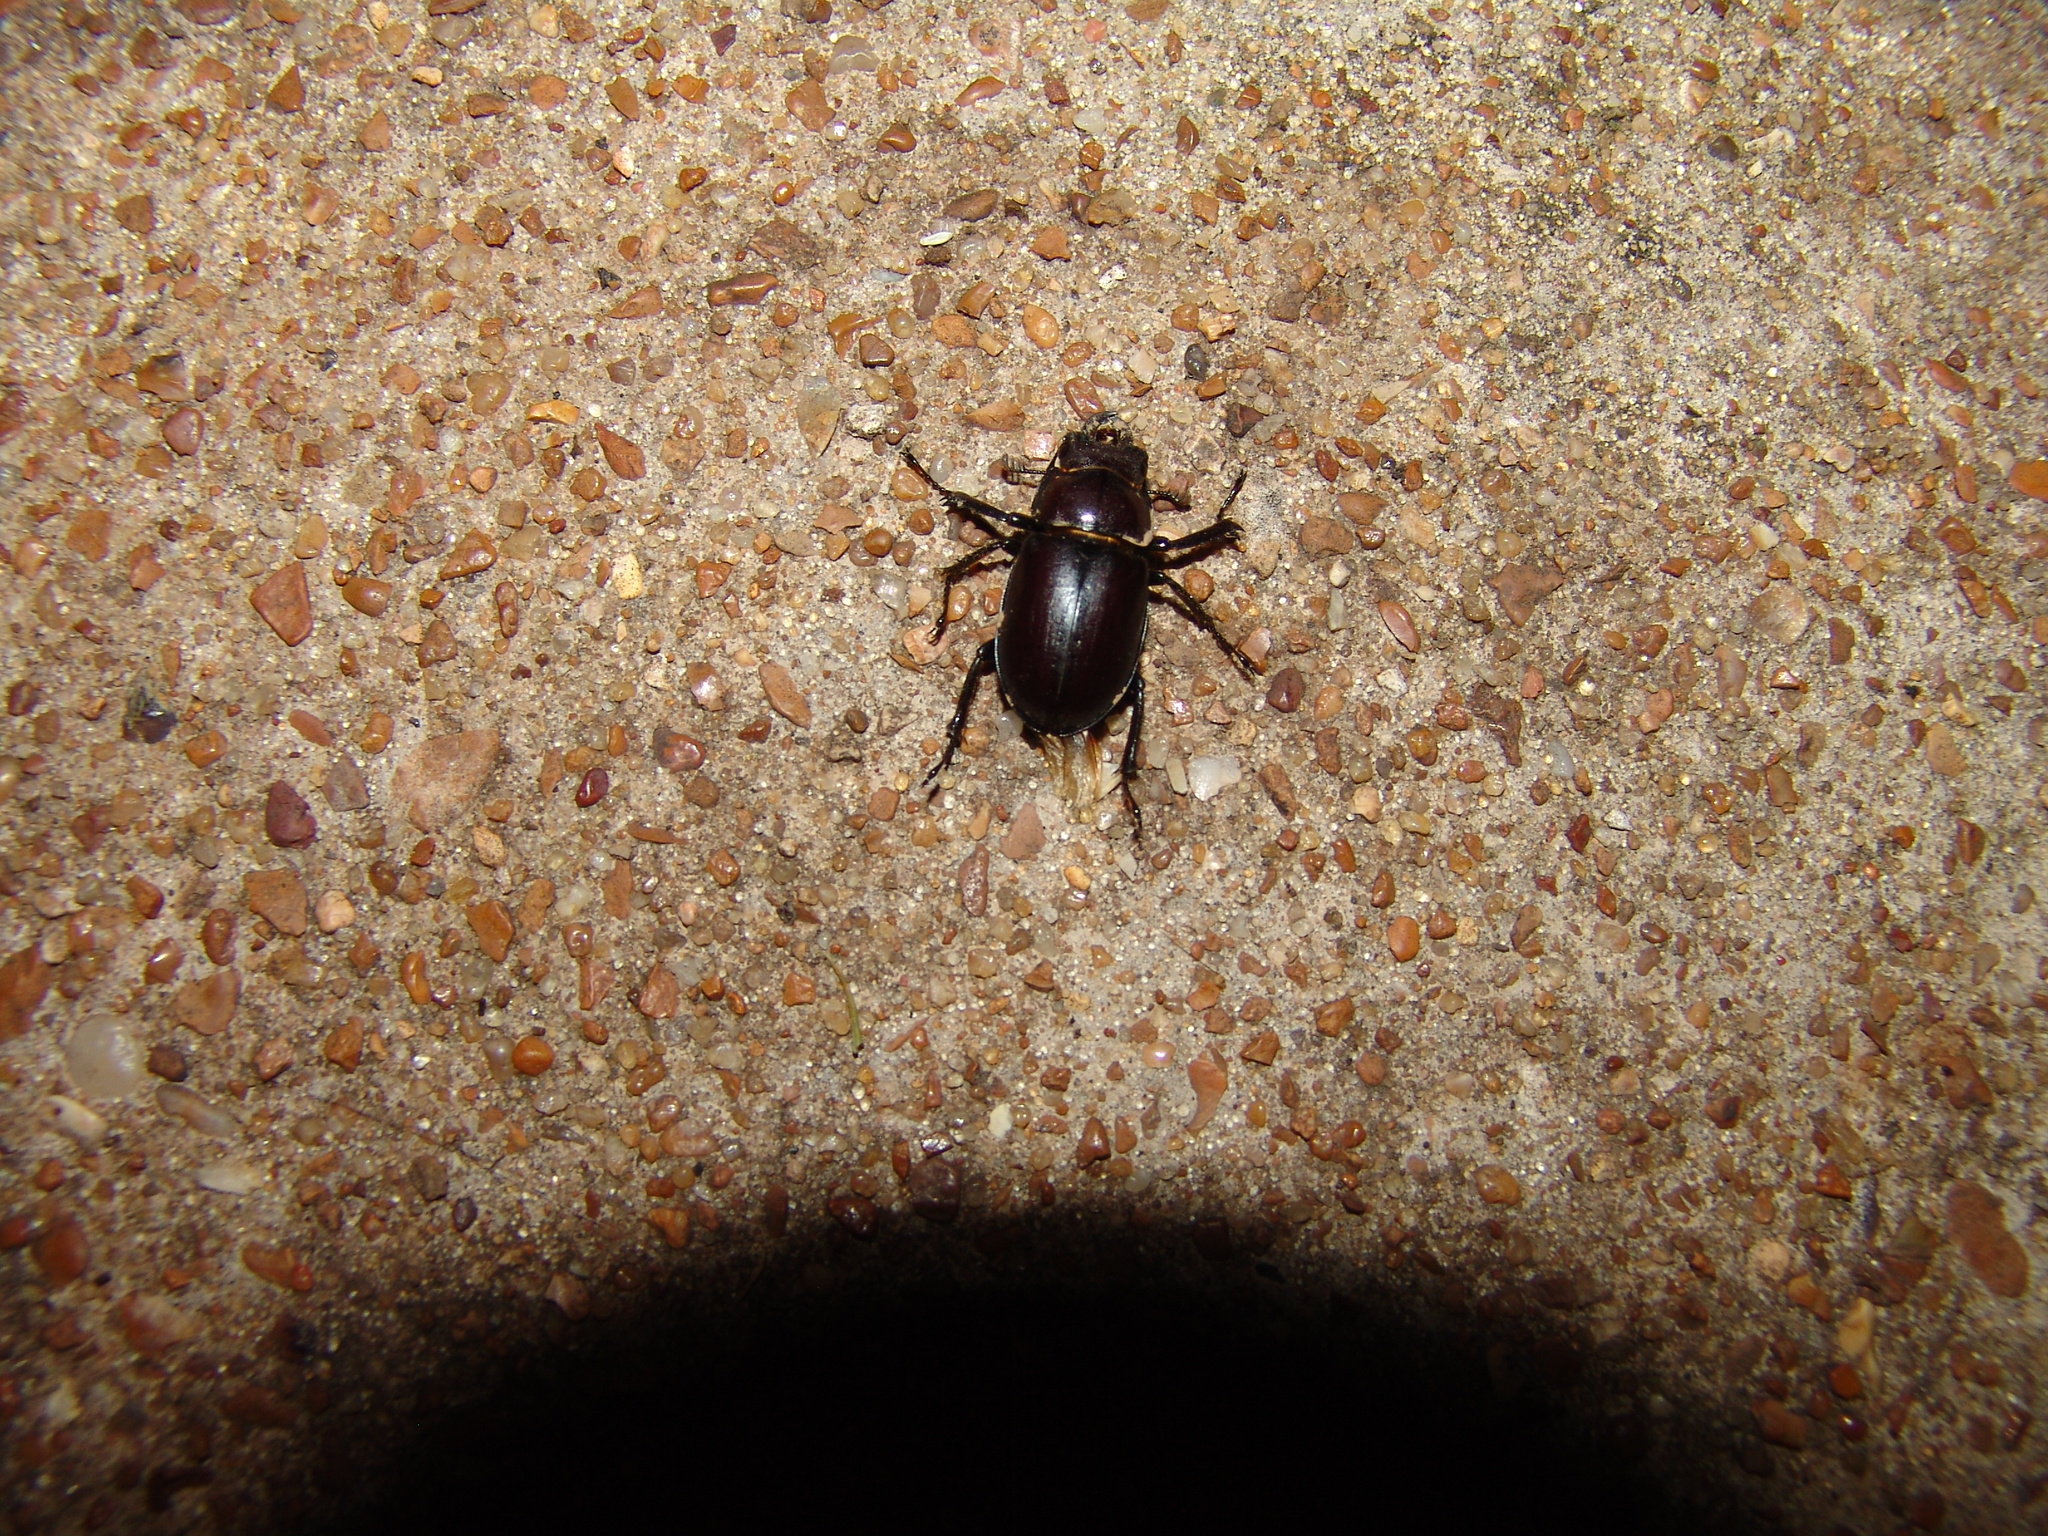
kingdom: Animalia
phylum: Arthropoda
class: Insecta
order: Coleoptera
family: Lucanidae
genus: Lucanus
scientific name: Lucanus placidus
